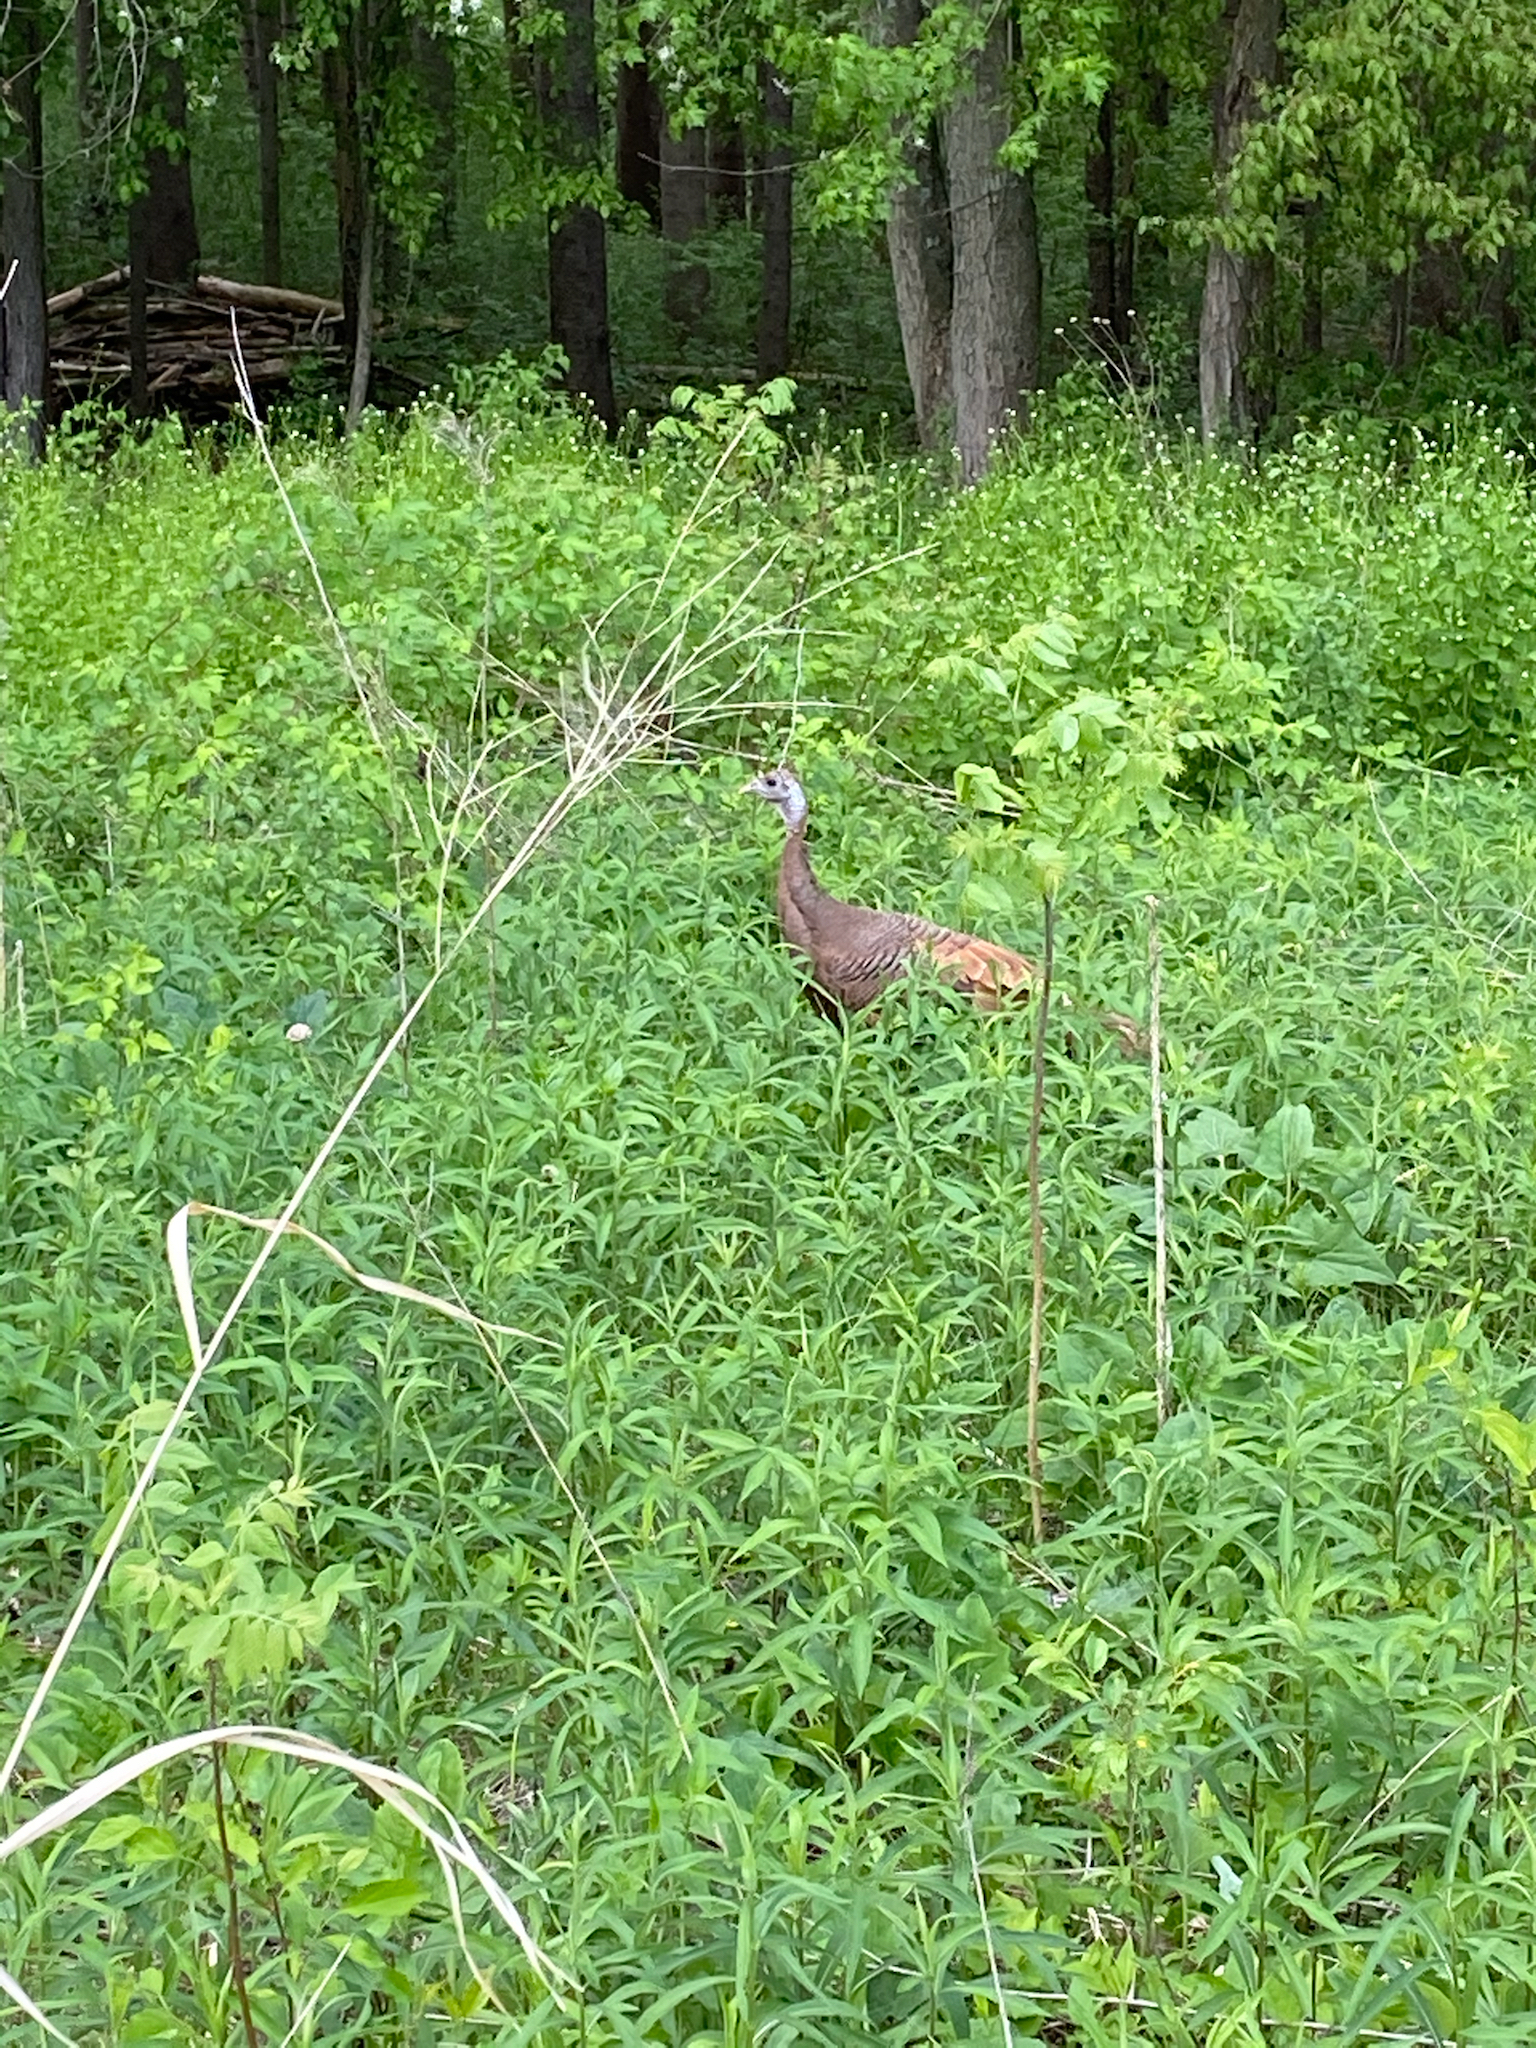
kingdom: Animalia
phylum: Chordata
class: Aves
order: Galliformes
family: Phasianidae
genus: Meleagris
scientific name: Meleagris gallopavo
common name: Wild turkey
